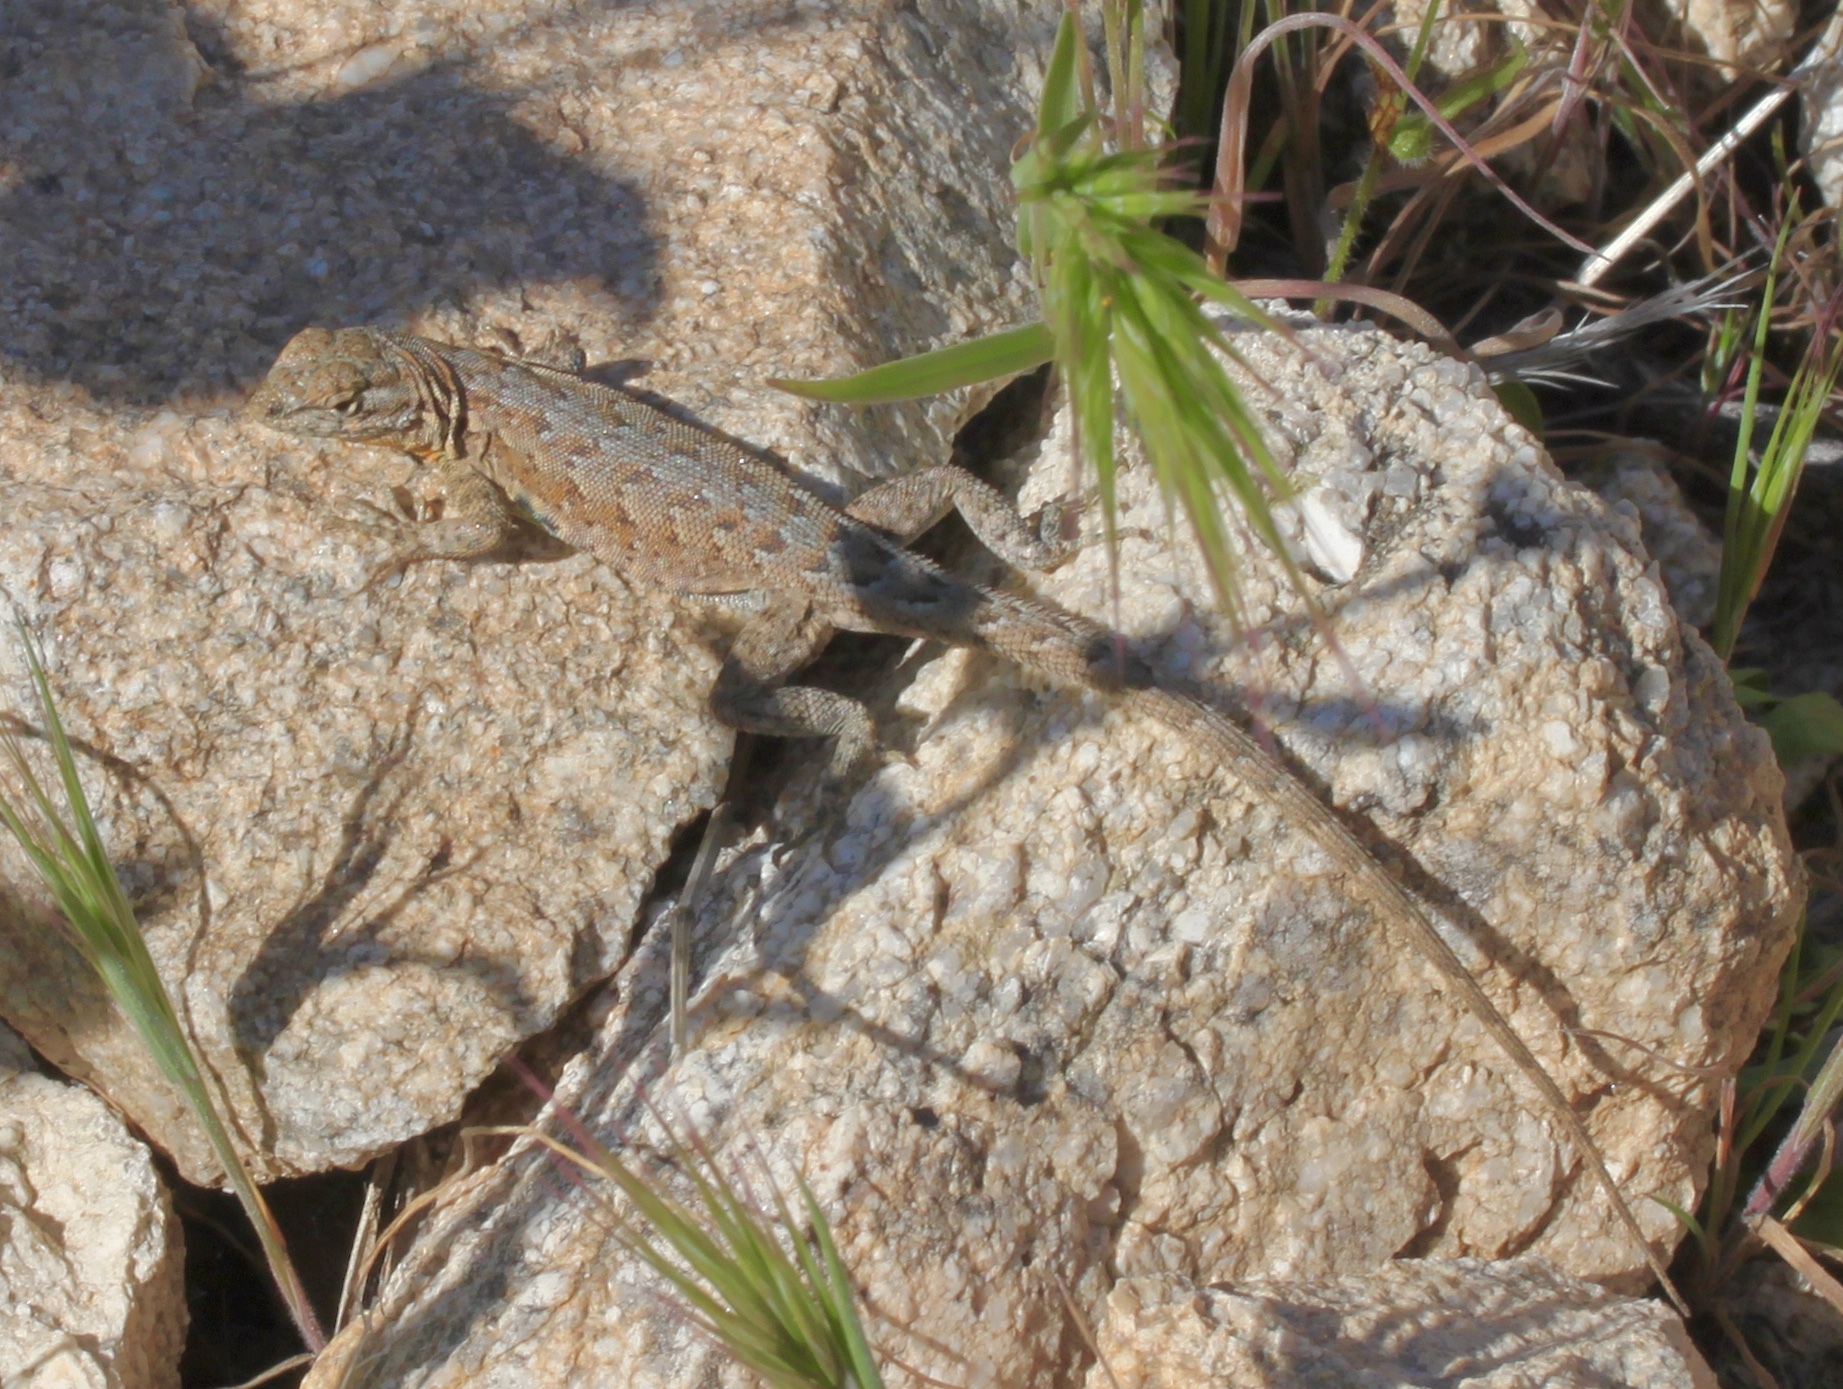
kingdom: Animalia
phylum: Chordata
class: Squamata
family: Phrynosomatidae
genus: Uta
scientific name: Uta stansburiana
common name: Side-blotched lizard
